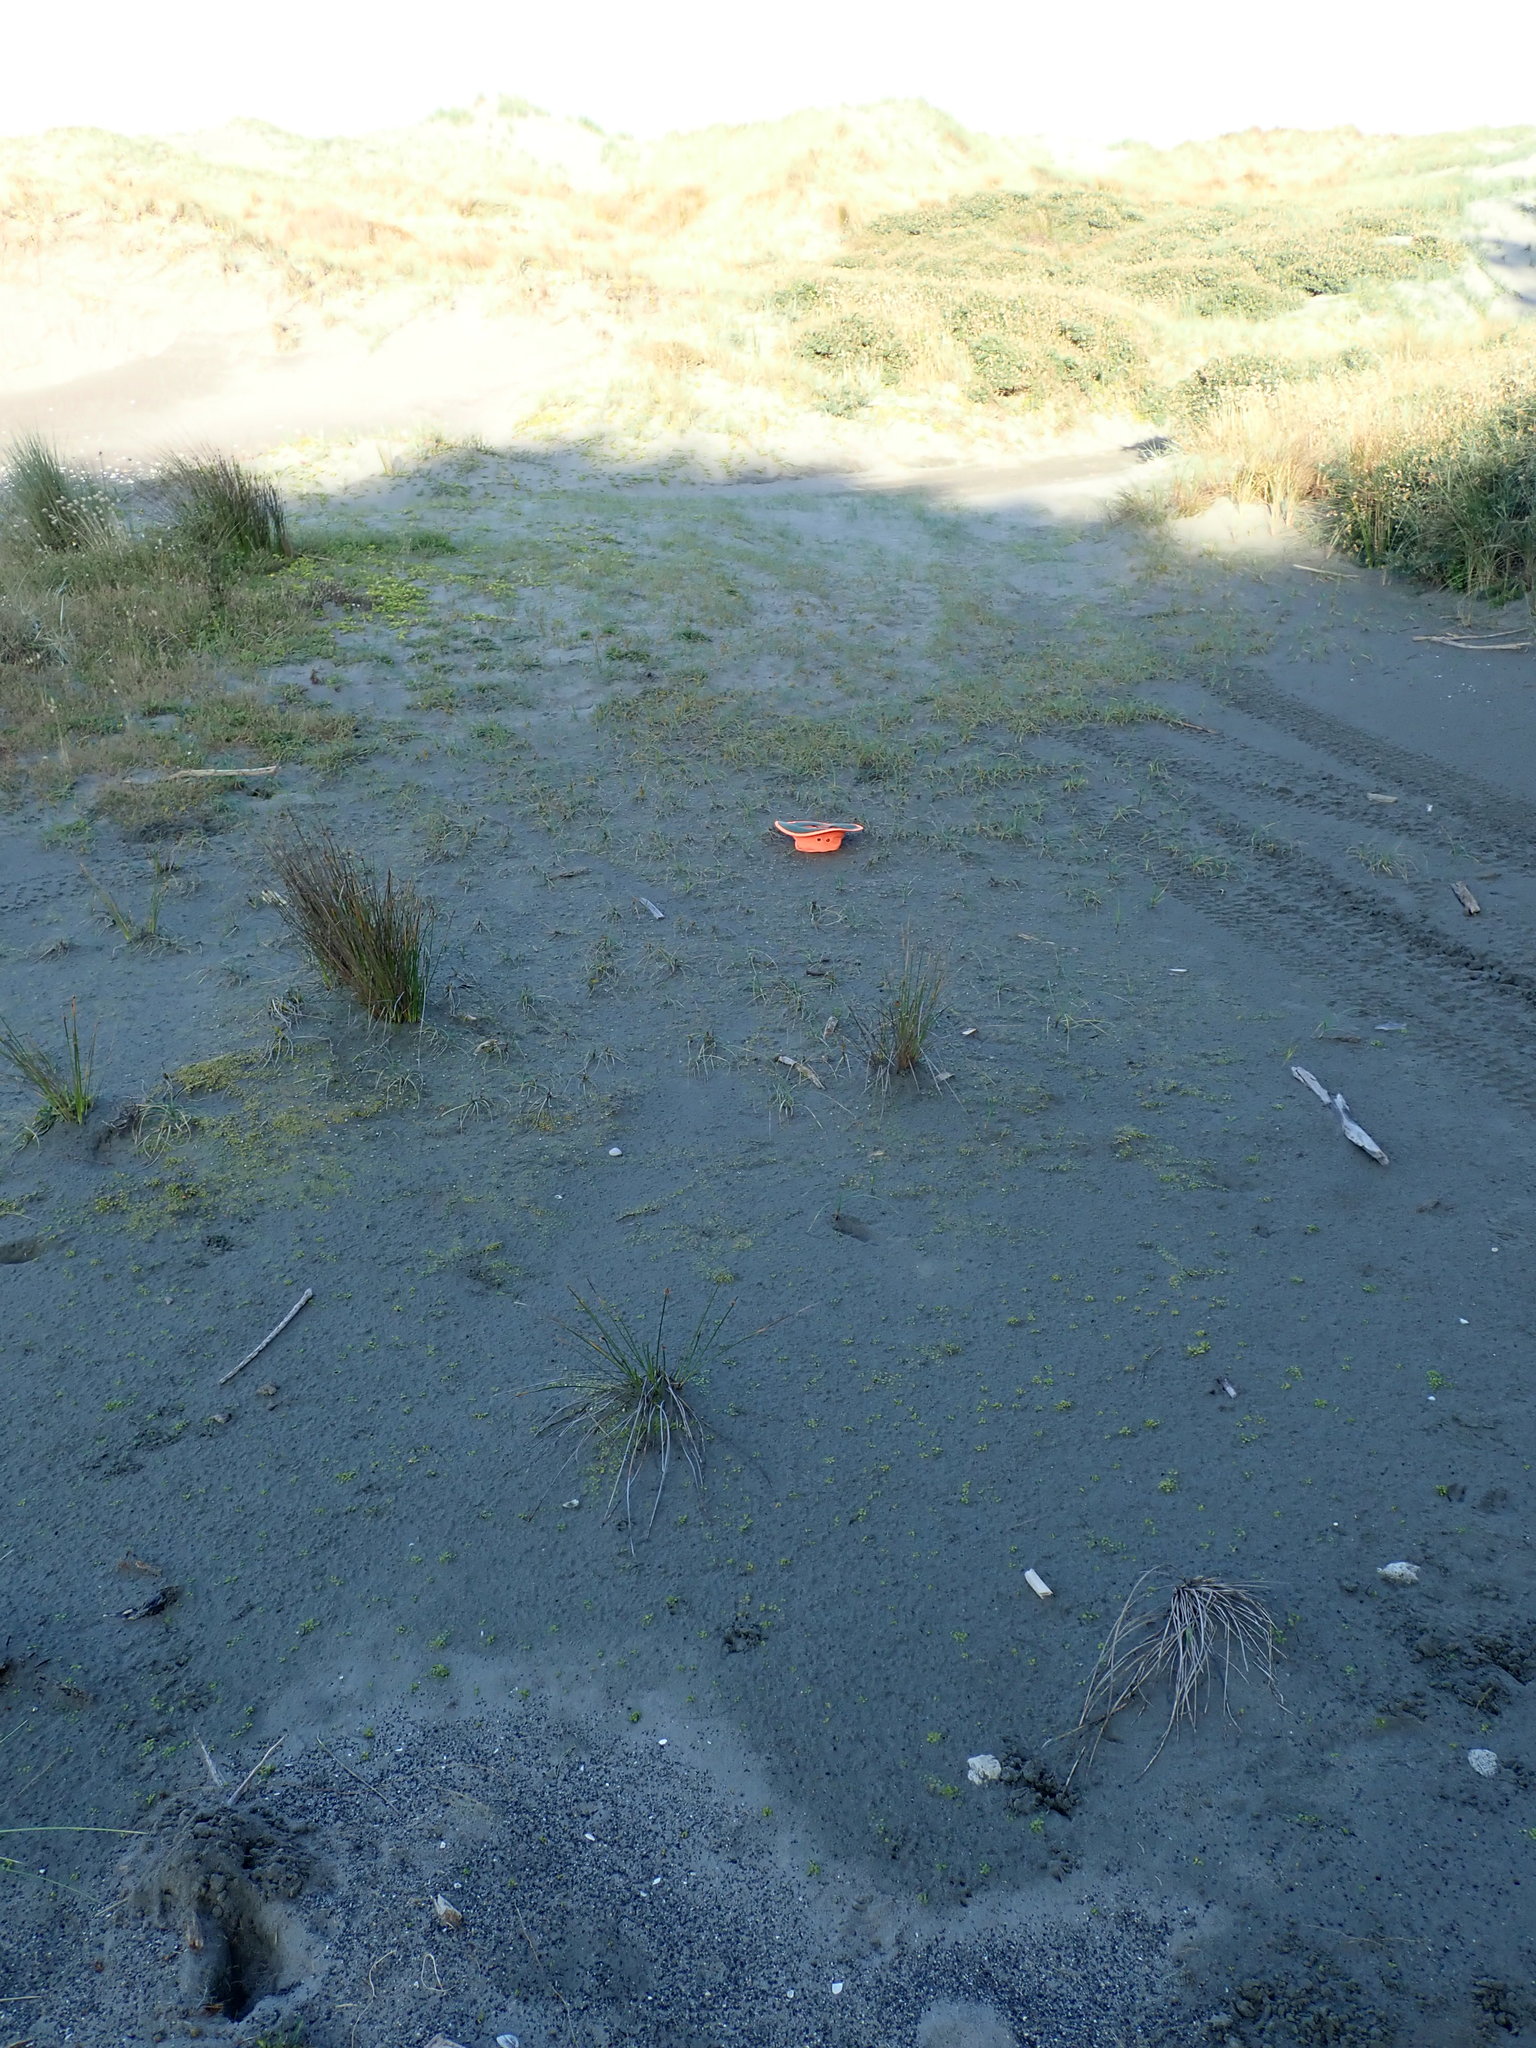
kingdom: Plantae
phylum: Tracheophyta
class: Magnoliopsida
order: Asterales
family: Goodeniaceae
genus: Goodenia
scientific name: Goodenia heenanii
